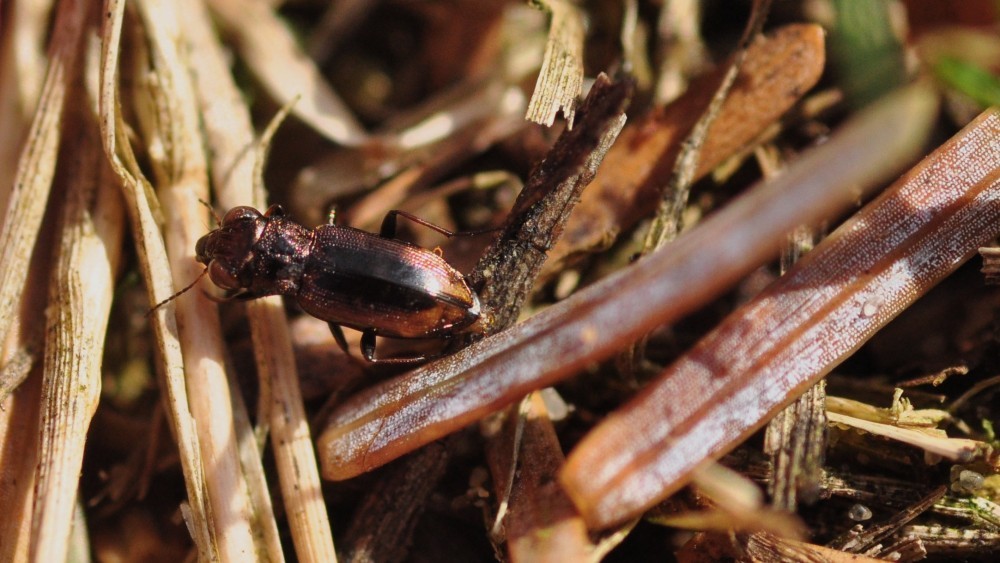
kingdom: Animalia
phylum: Arthropoda
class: Insecta
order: Coleoptera
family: Carabidae
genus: Notiophilus
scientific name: Notiophilus biguttatus
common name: Spotted gazelle beetle
